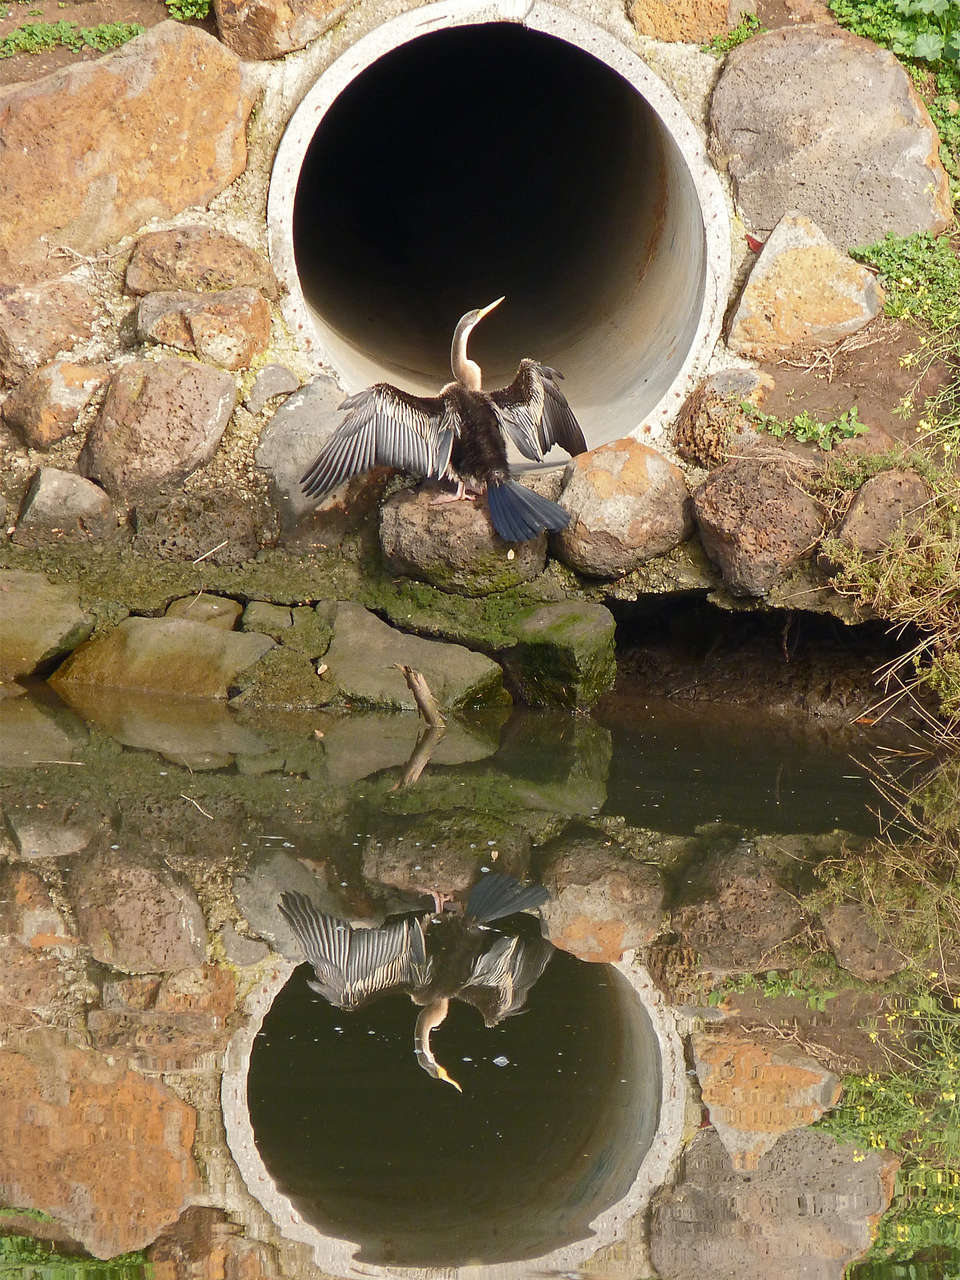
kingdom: Animalia
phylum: Chordata
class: Aves
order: Suliformes
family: Anhingidae
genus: Anhinga
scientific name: Anhinga novaehollandiae
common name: Australasian darter
